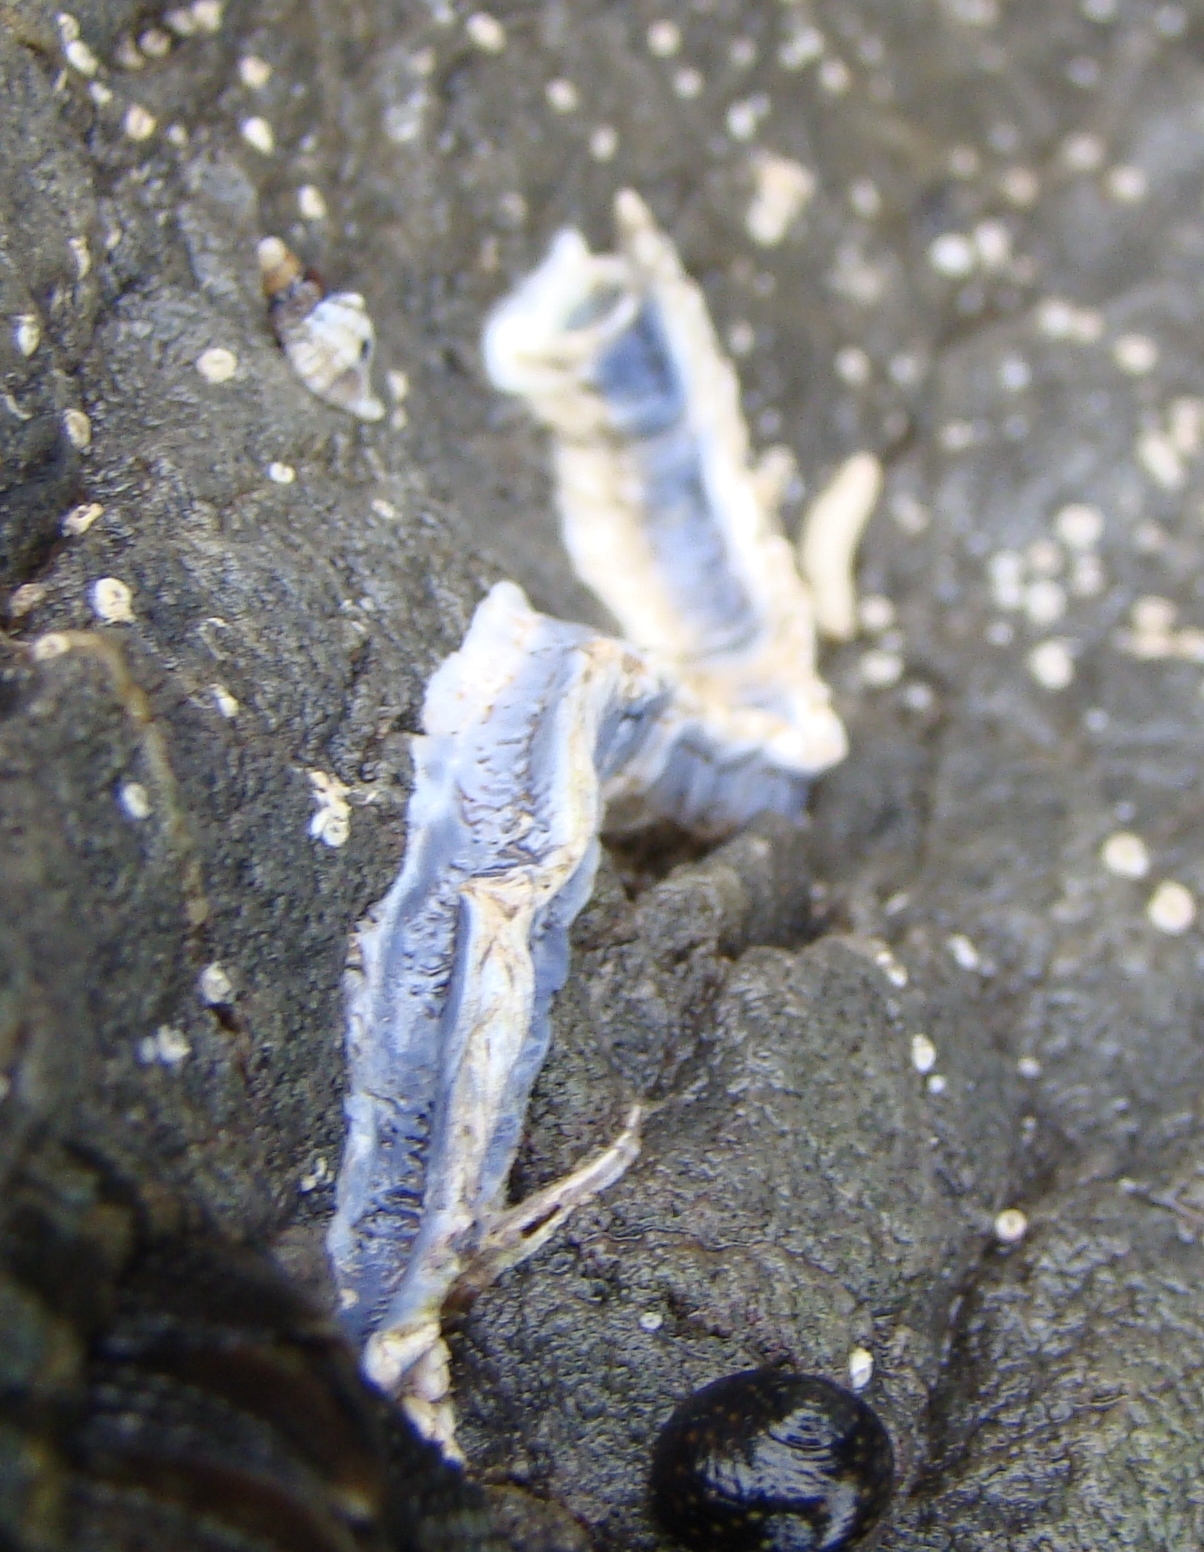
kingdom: Animalia
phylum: Annelida
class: Polychaeta
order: Sabellida
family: Serpulidae
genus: Spirobranchus
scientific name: Spirobranchus cariniferus
